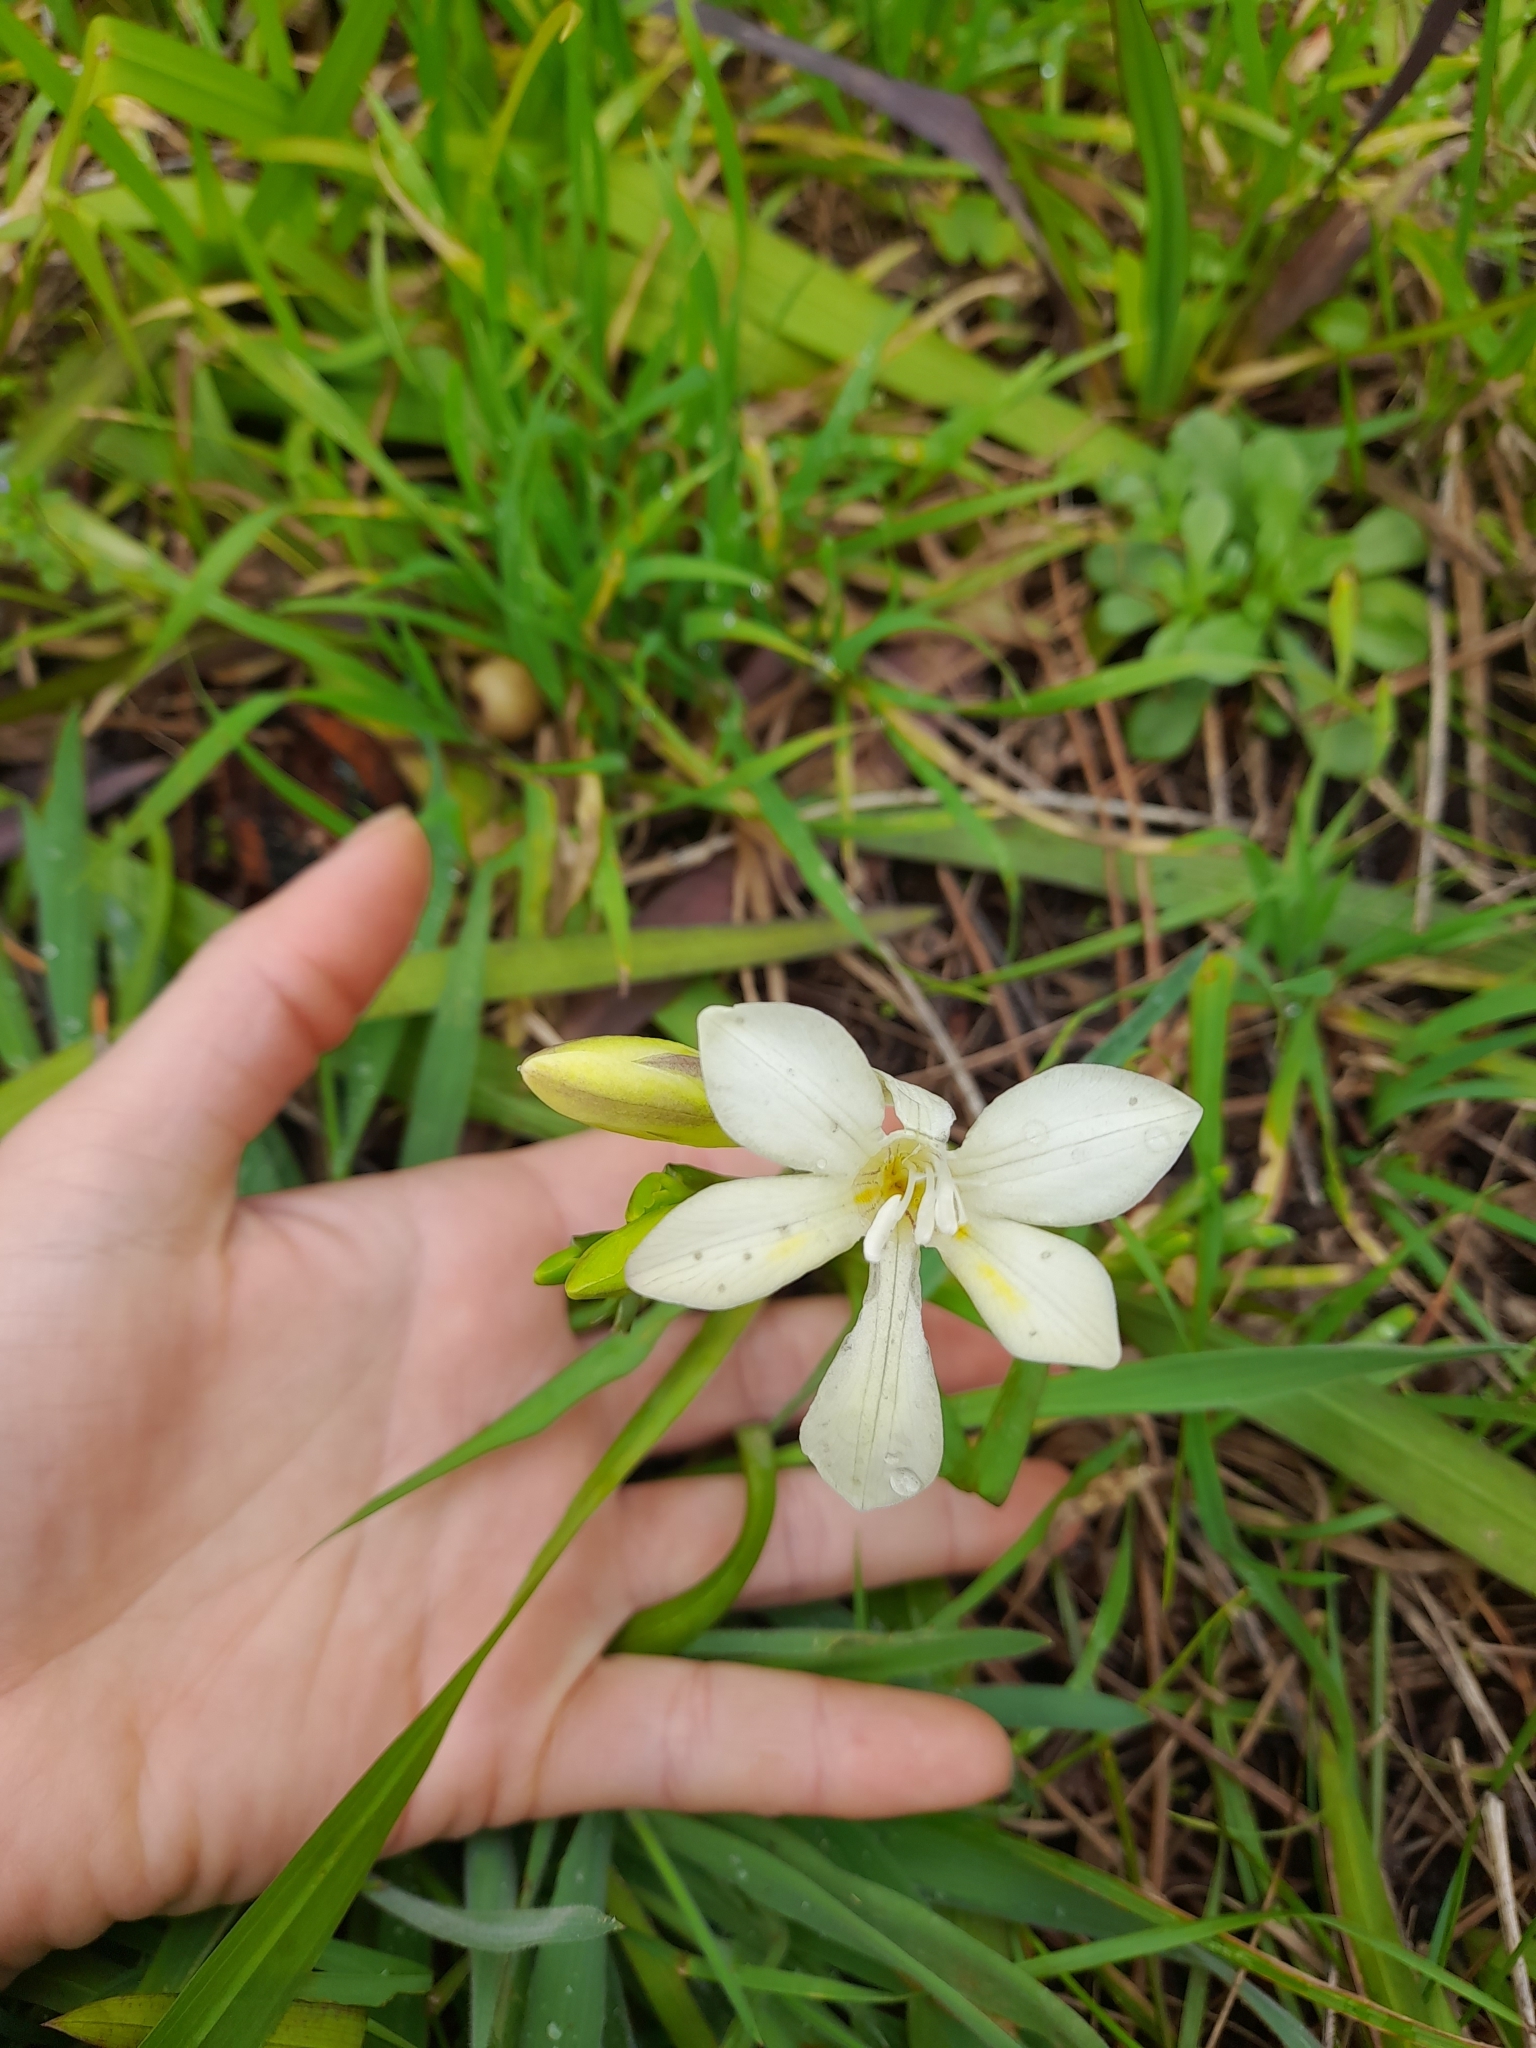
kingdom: Plantae
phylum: Tracheophyta
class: Liliopsida
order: Asparagales
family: Iridaceae
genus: Freesia
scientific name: Freesia leichtlinii
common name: Freesia
